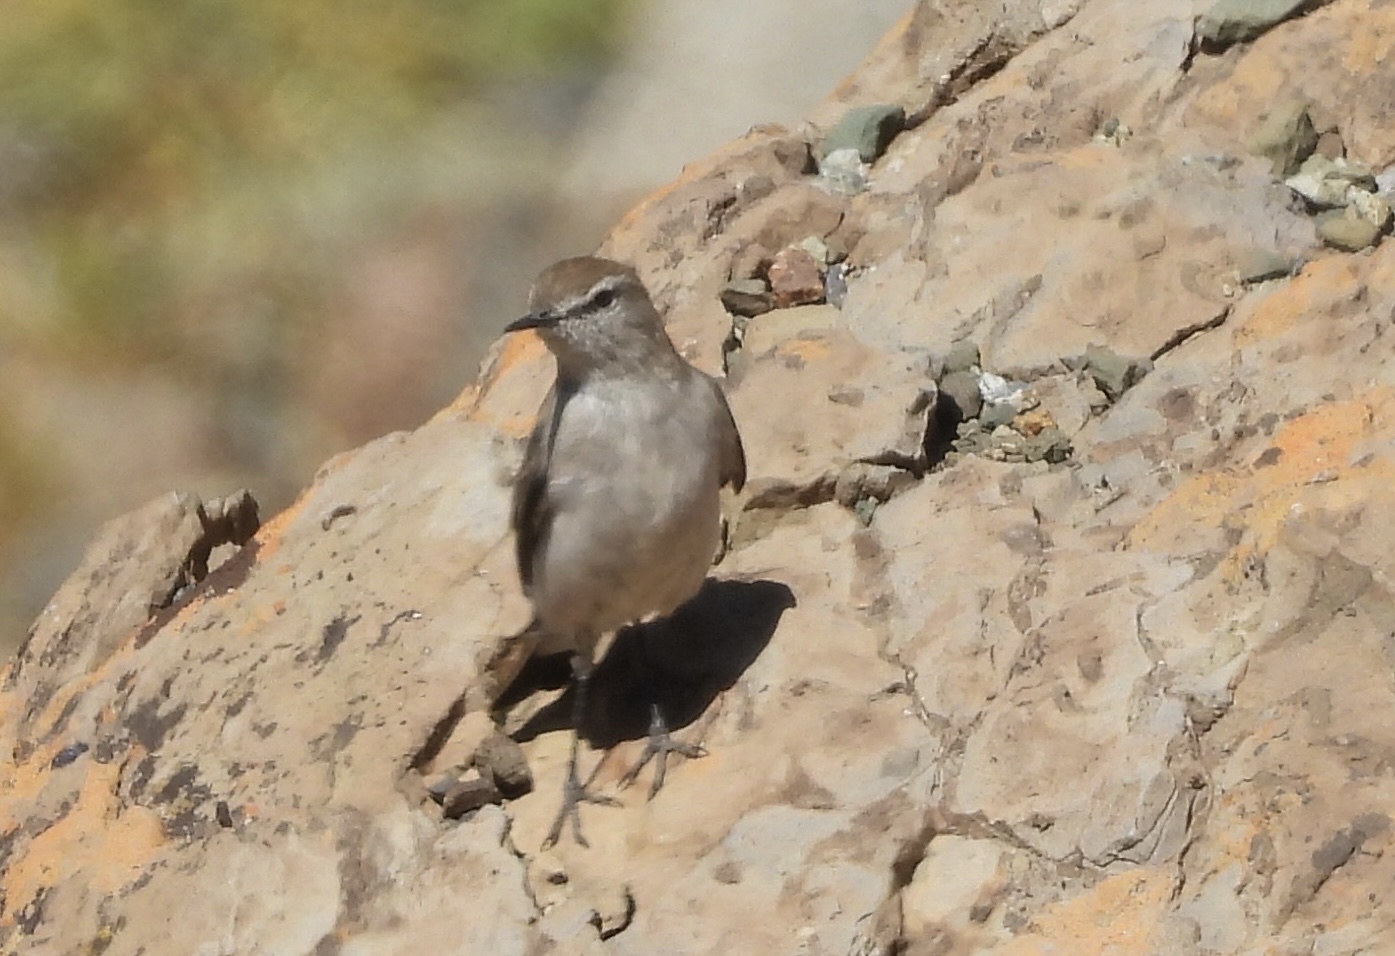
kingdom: Animalia
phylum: Chordata
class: Aves
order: Passeriformes
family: Tyrannidae
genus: Muscisaxicola
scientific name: Muscisaxicola albilora
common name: White-browed ground tyrant
